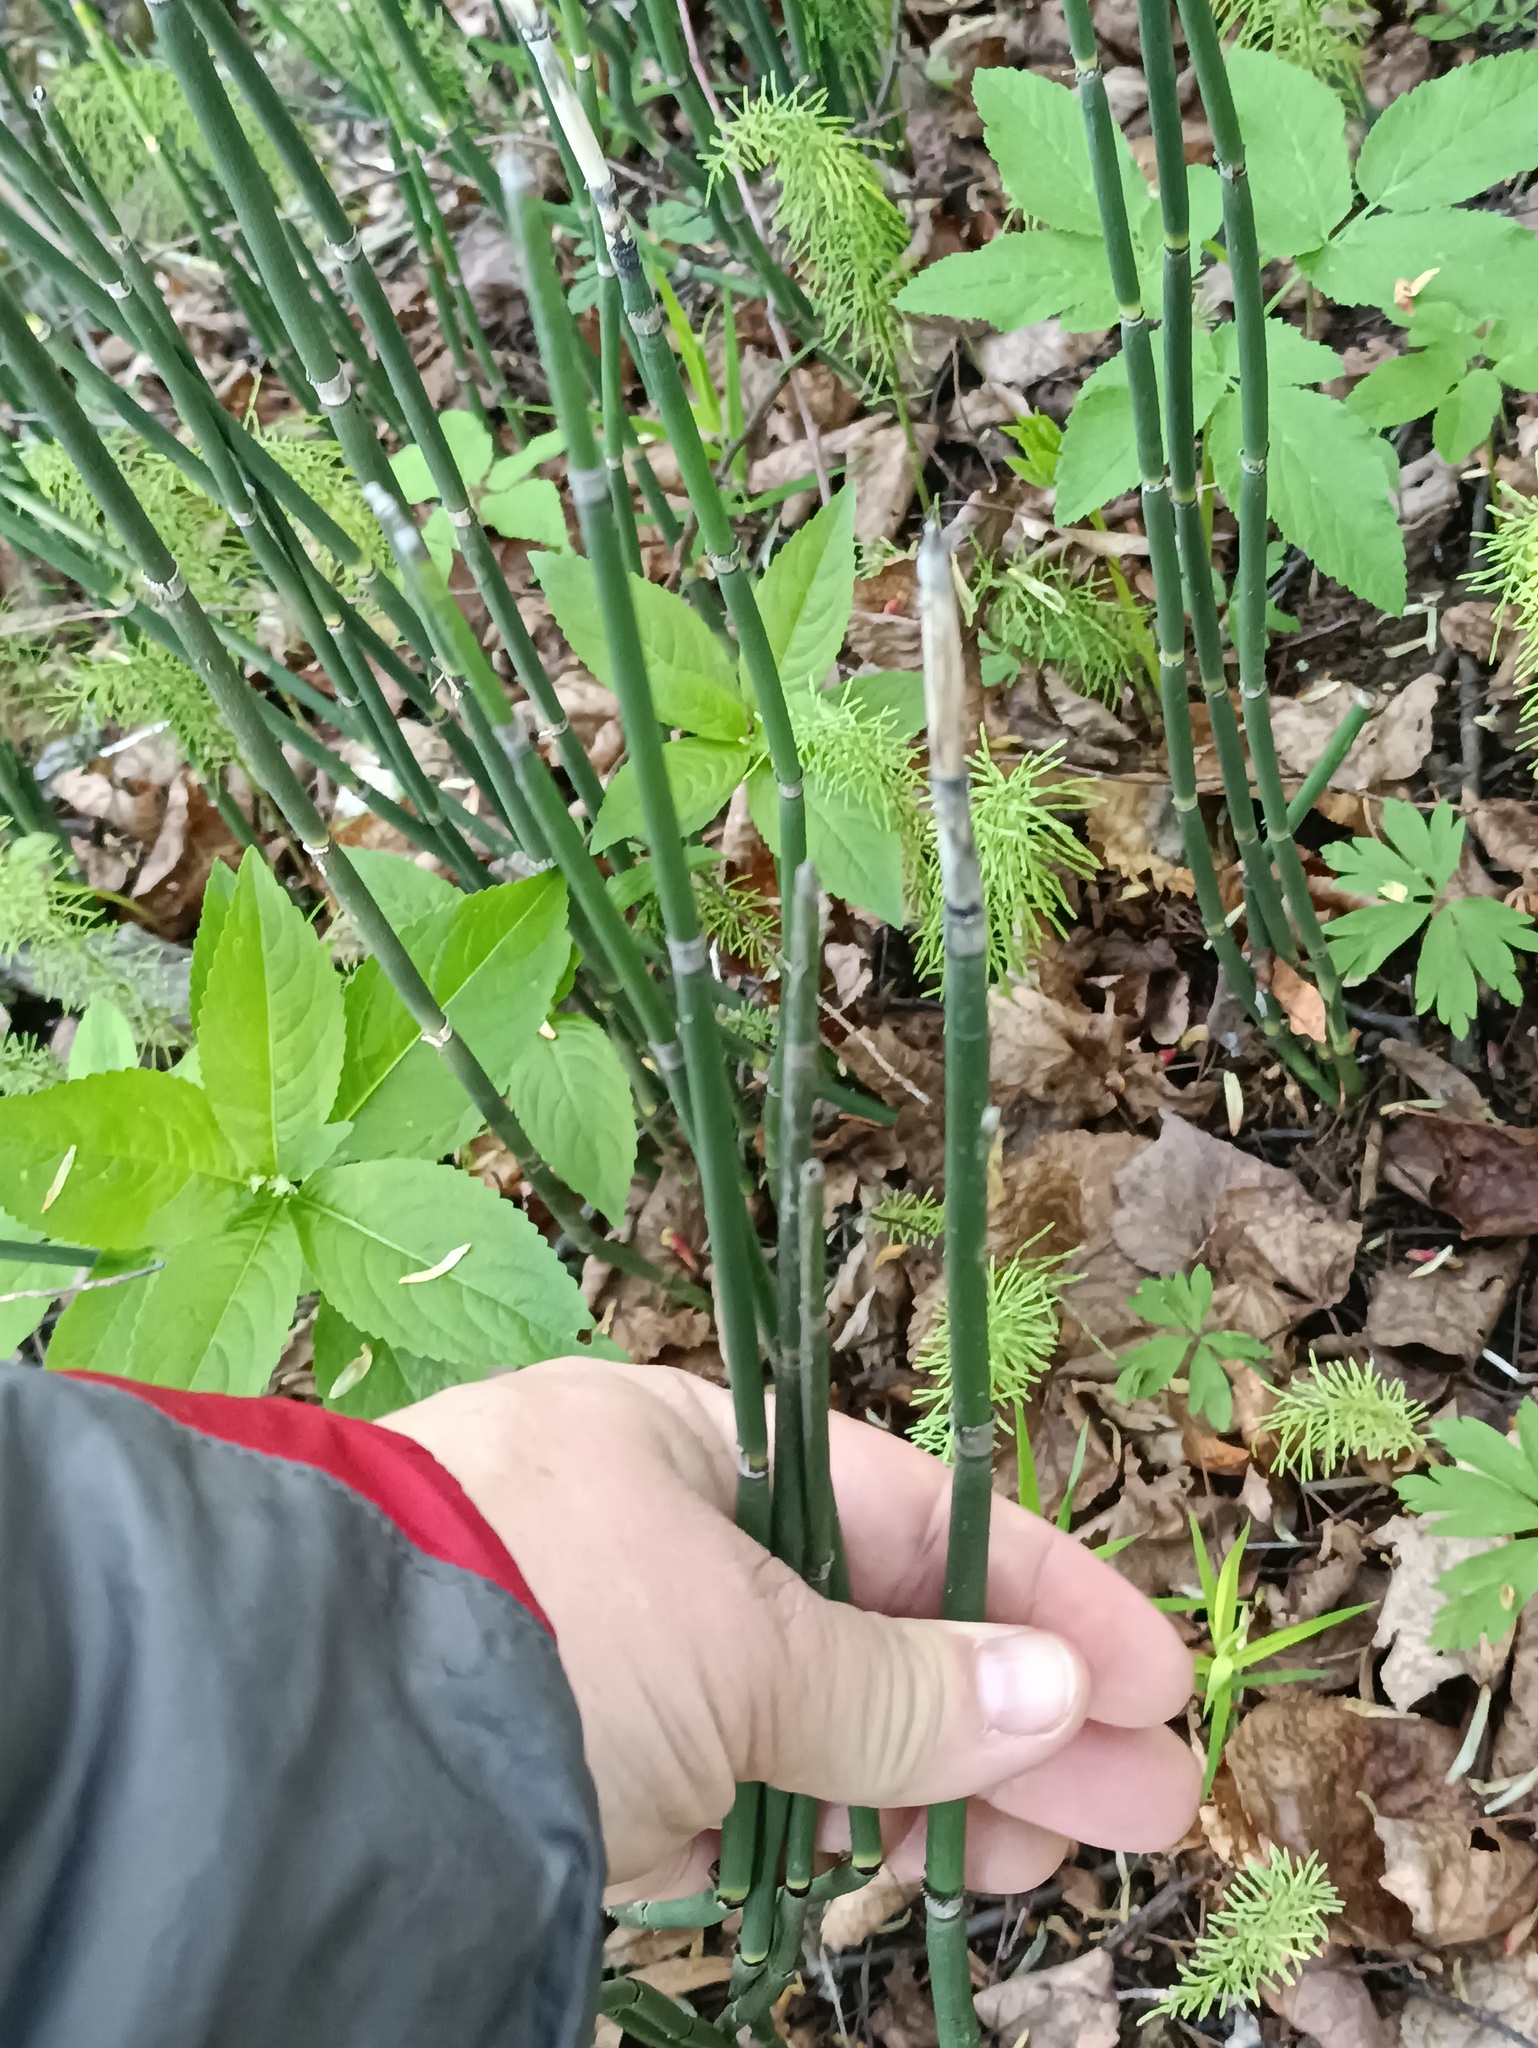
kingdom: Plantae
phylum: Tracheophyta
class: Polypodiopsida
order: Equisetales
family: Equisetaceae
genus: Equisetum
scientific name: Equisetum hyemale
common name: Rough horsetail
